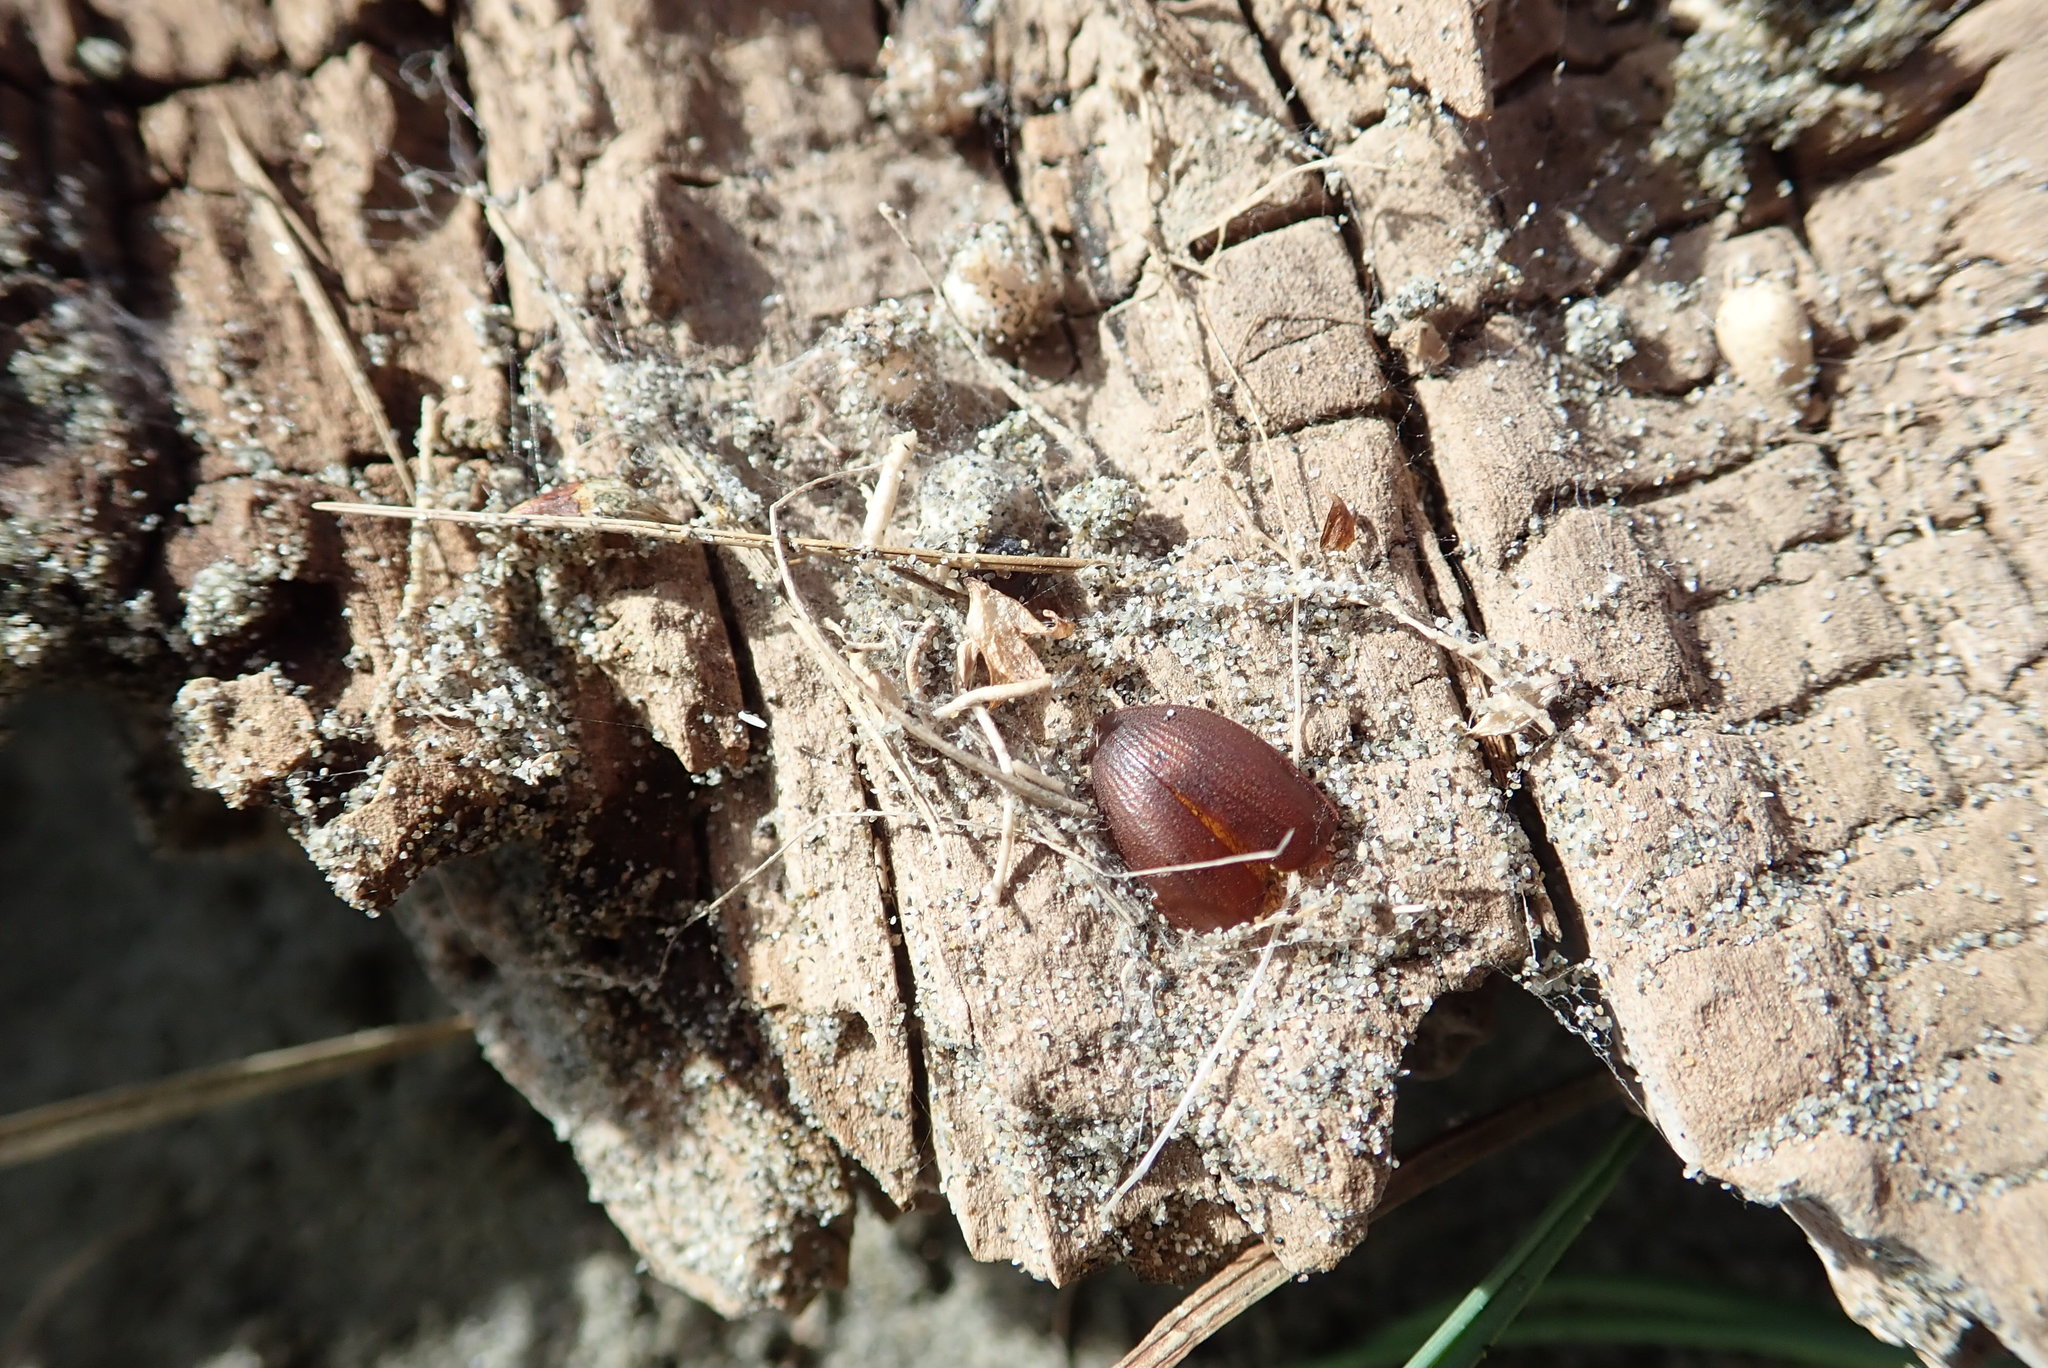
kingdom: Animalia
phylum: Arthropoda
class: Arachnida
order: Araneae
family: Theridiidae
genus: Steatoda
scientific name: Steatoda lepida
